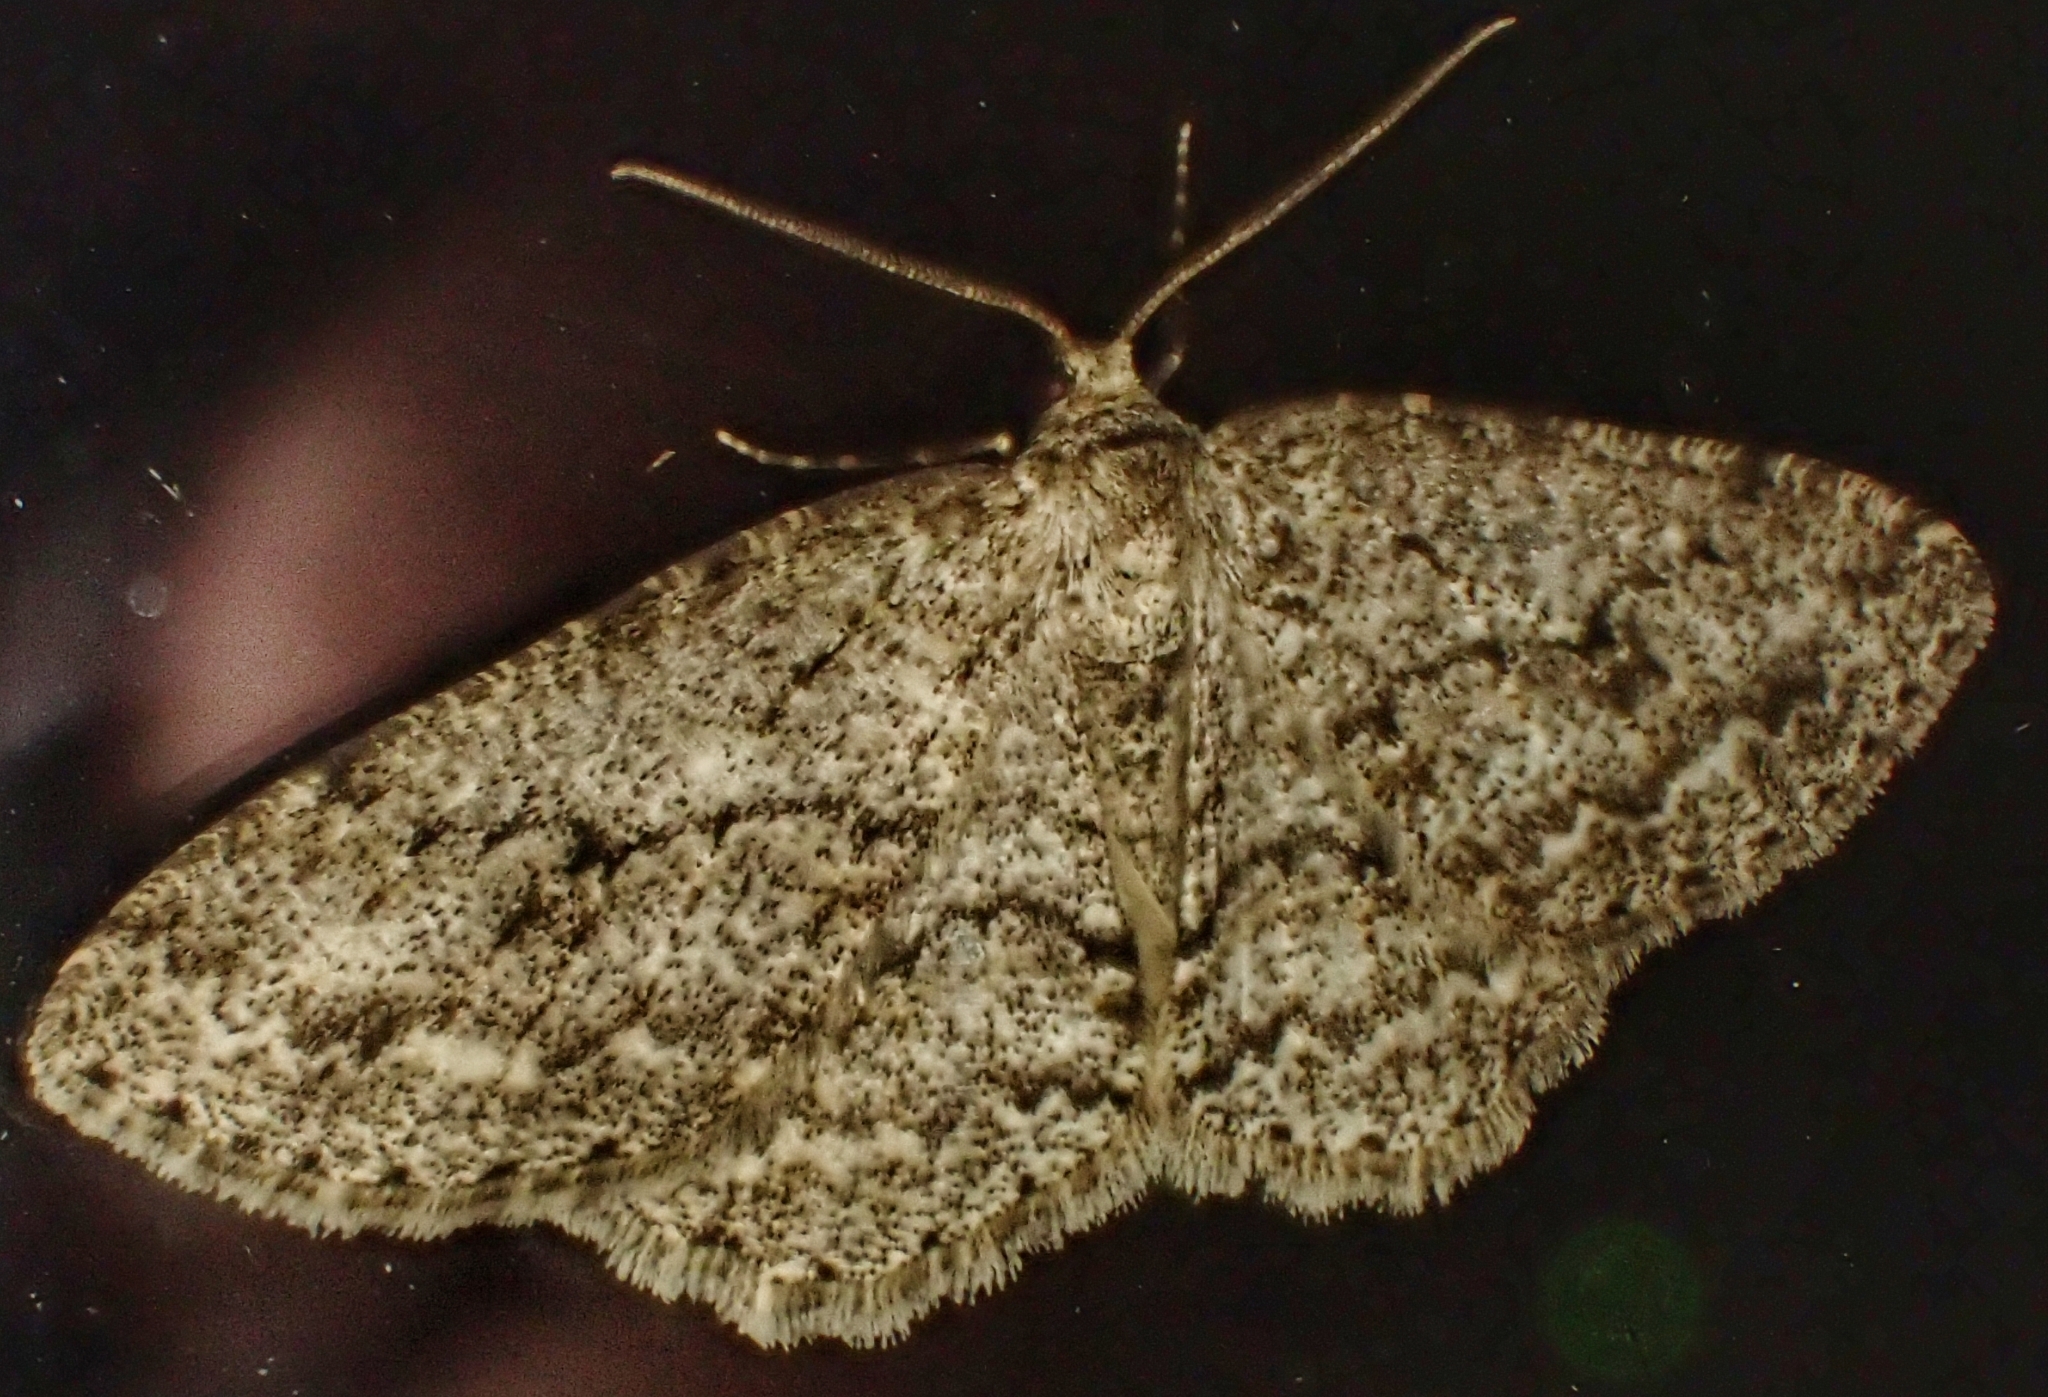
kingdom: Animalia
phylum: Arthropoda
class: Insecta
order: Lepidoptera
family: Geometridae
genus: Ectropis
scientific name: Ectropis crepuscularia
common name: Engrailed
